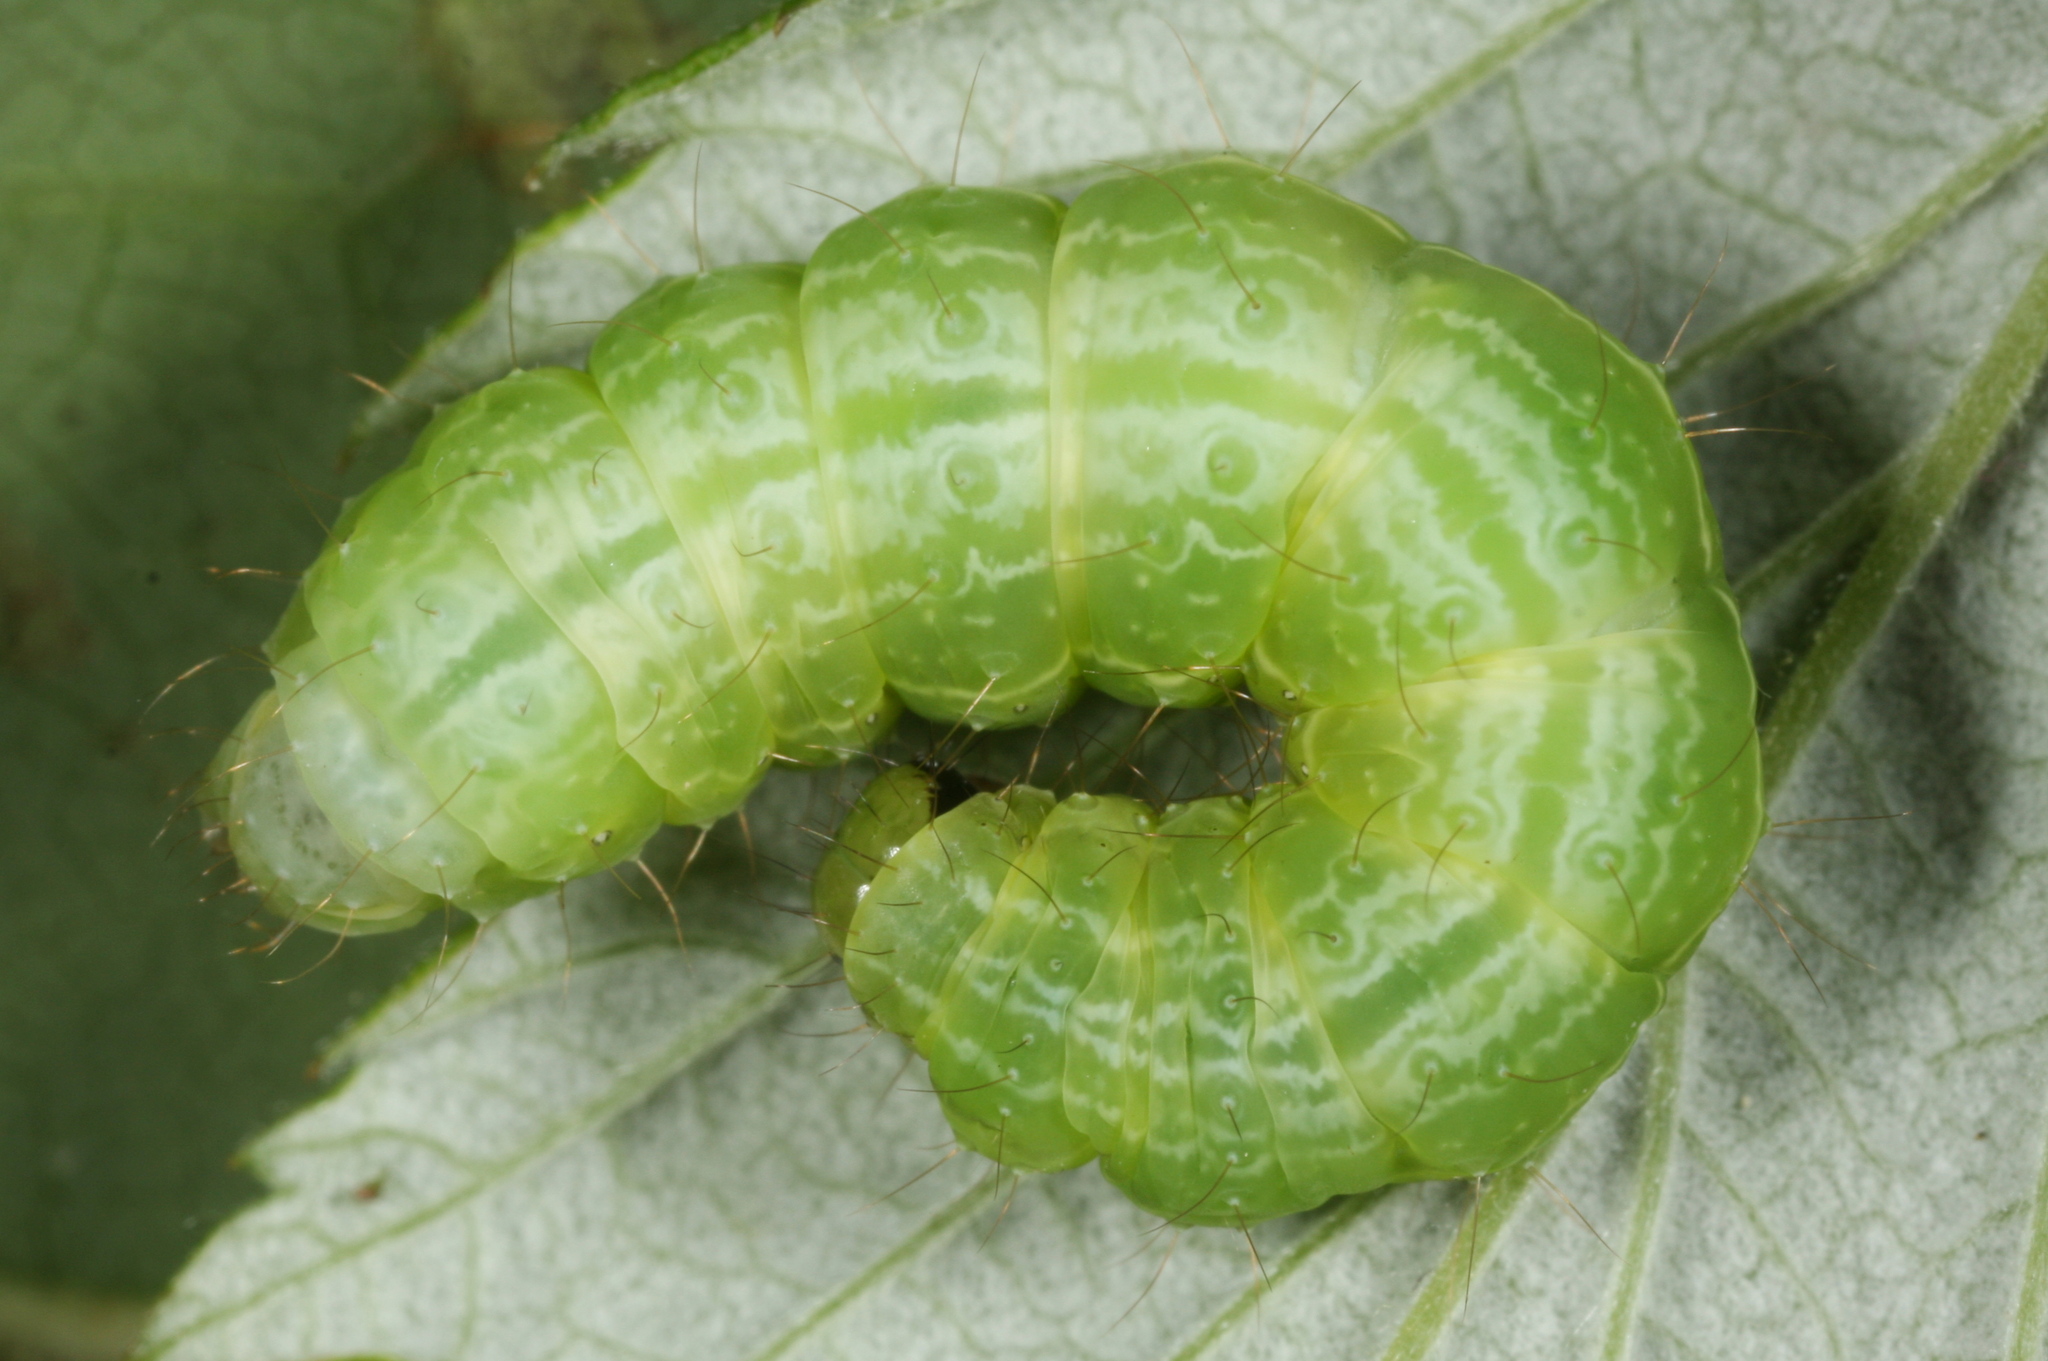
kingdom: Animalia
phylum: Arthropoda
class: Insecta
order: Lepidoptera
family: Noctuidae
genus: Autographa
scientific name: Autographa pulchrina
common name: Beautiful golden y
